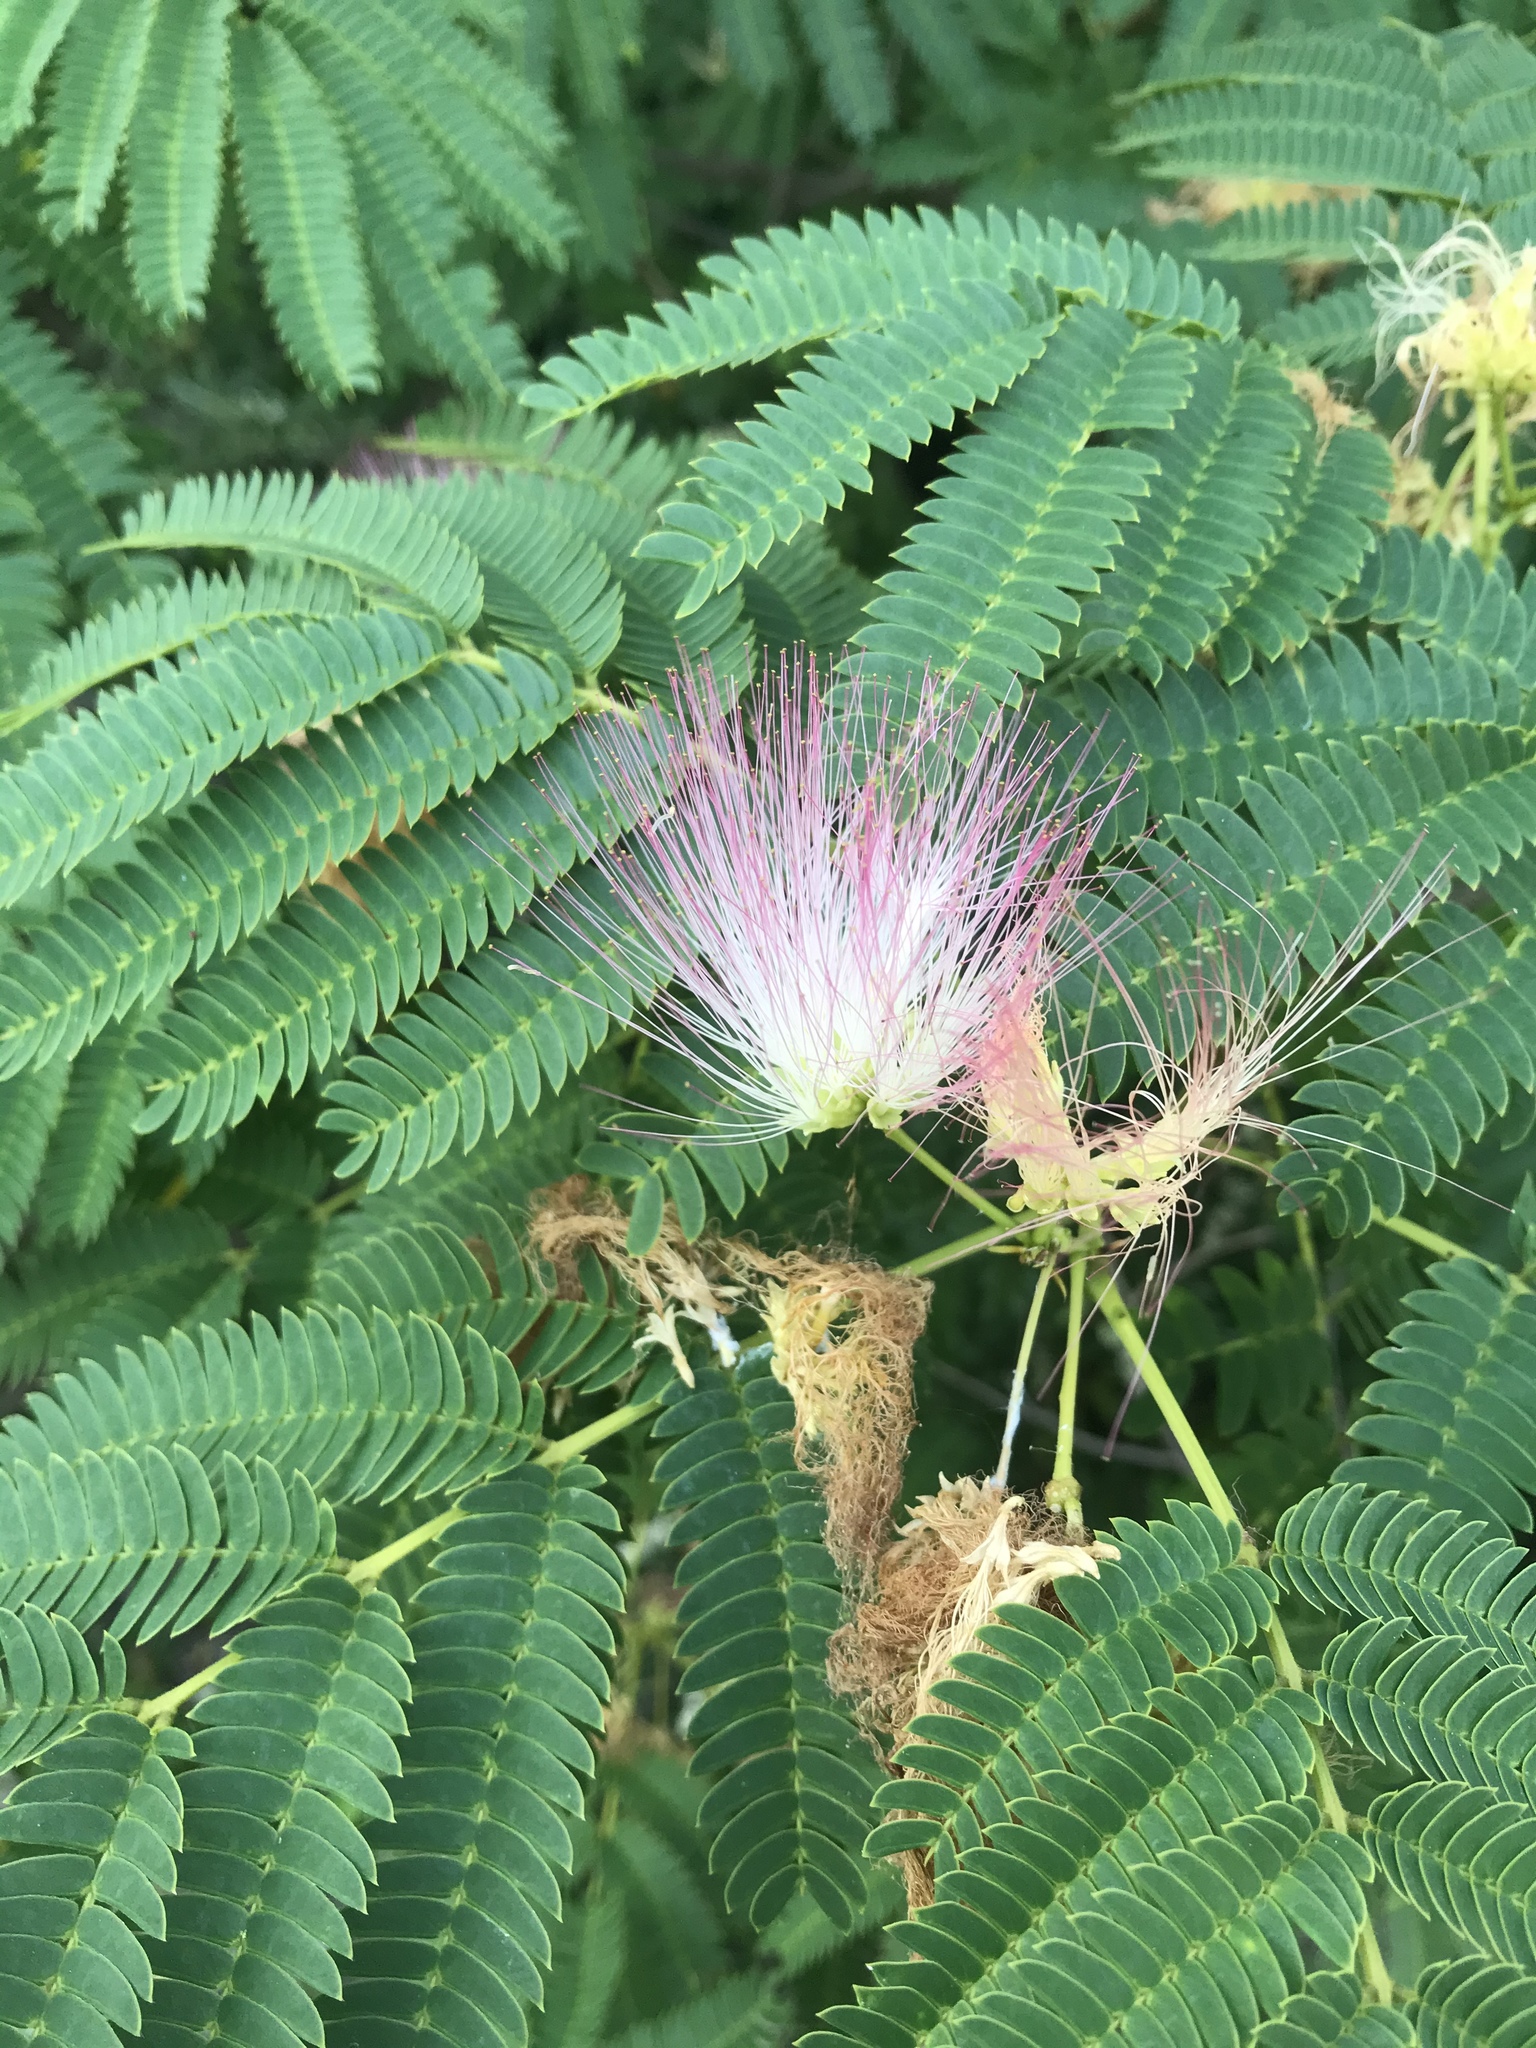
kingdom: Plantae
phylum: Tracheophyta
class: Magnoliopsida
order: Fabales
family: Fabaceae
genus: Albizia
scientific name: Albizia julibrissin
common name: Silktree
